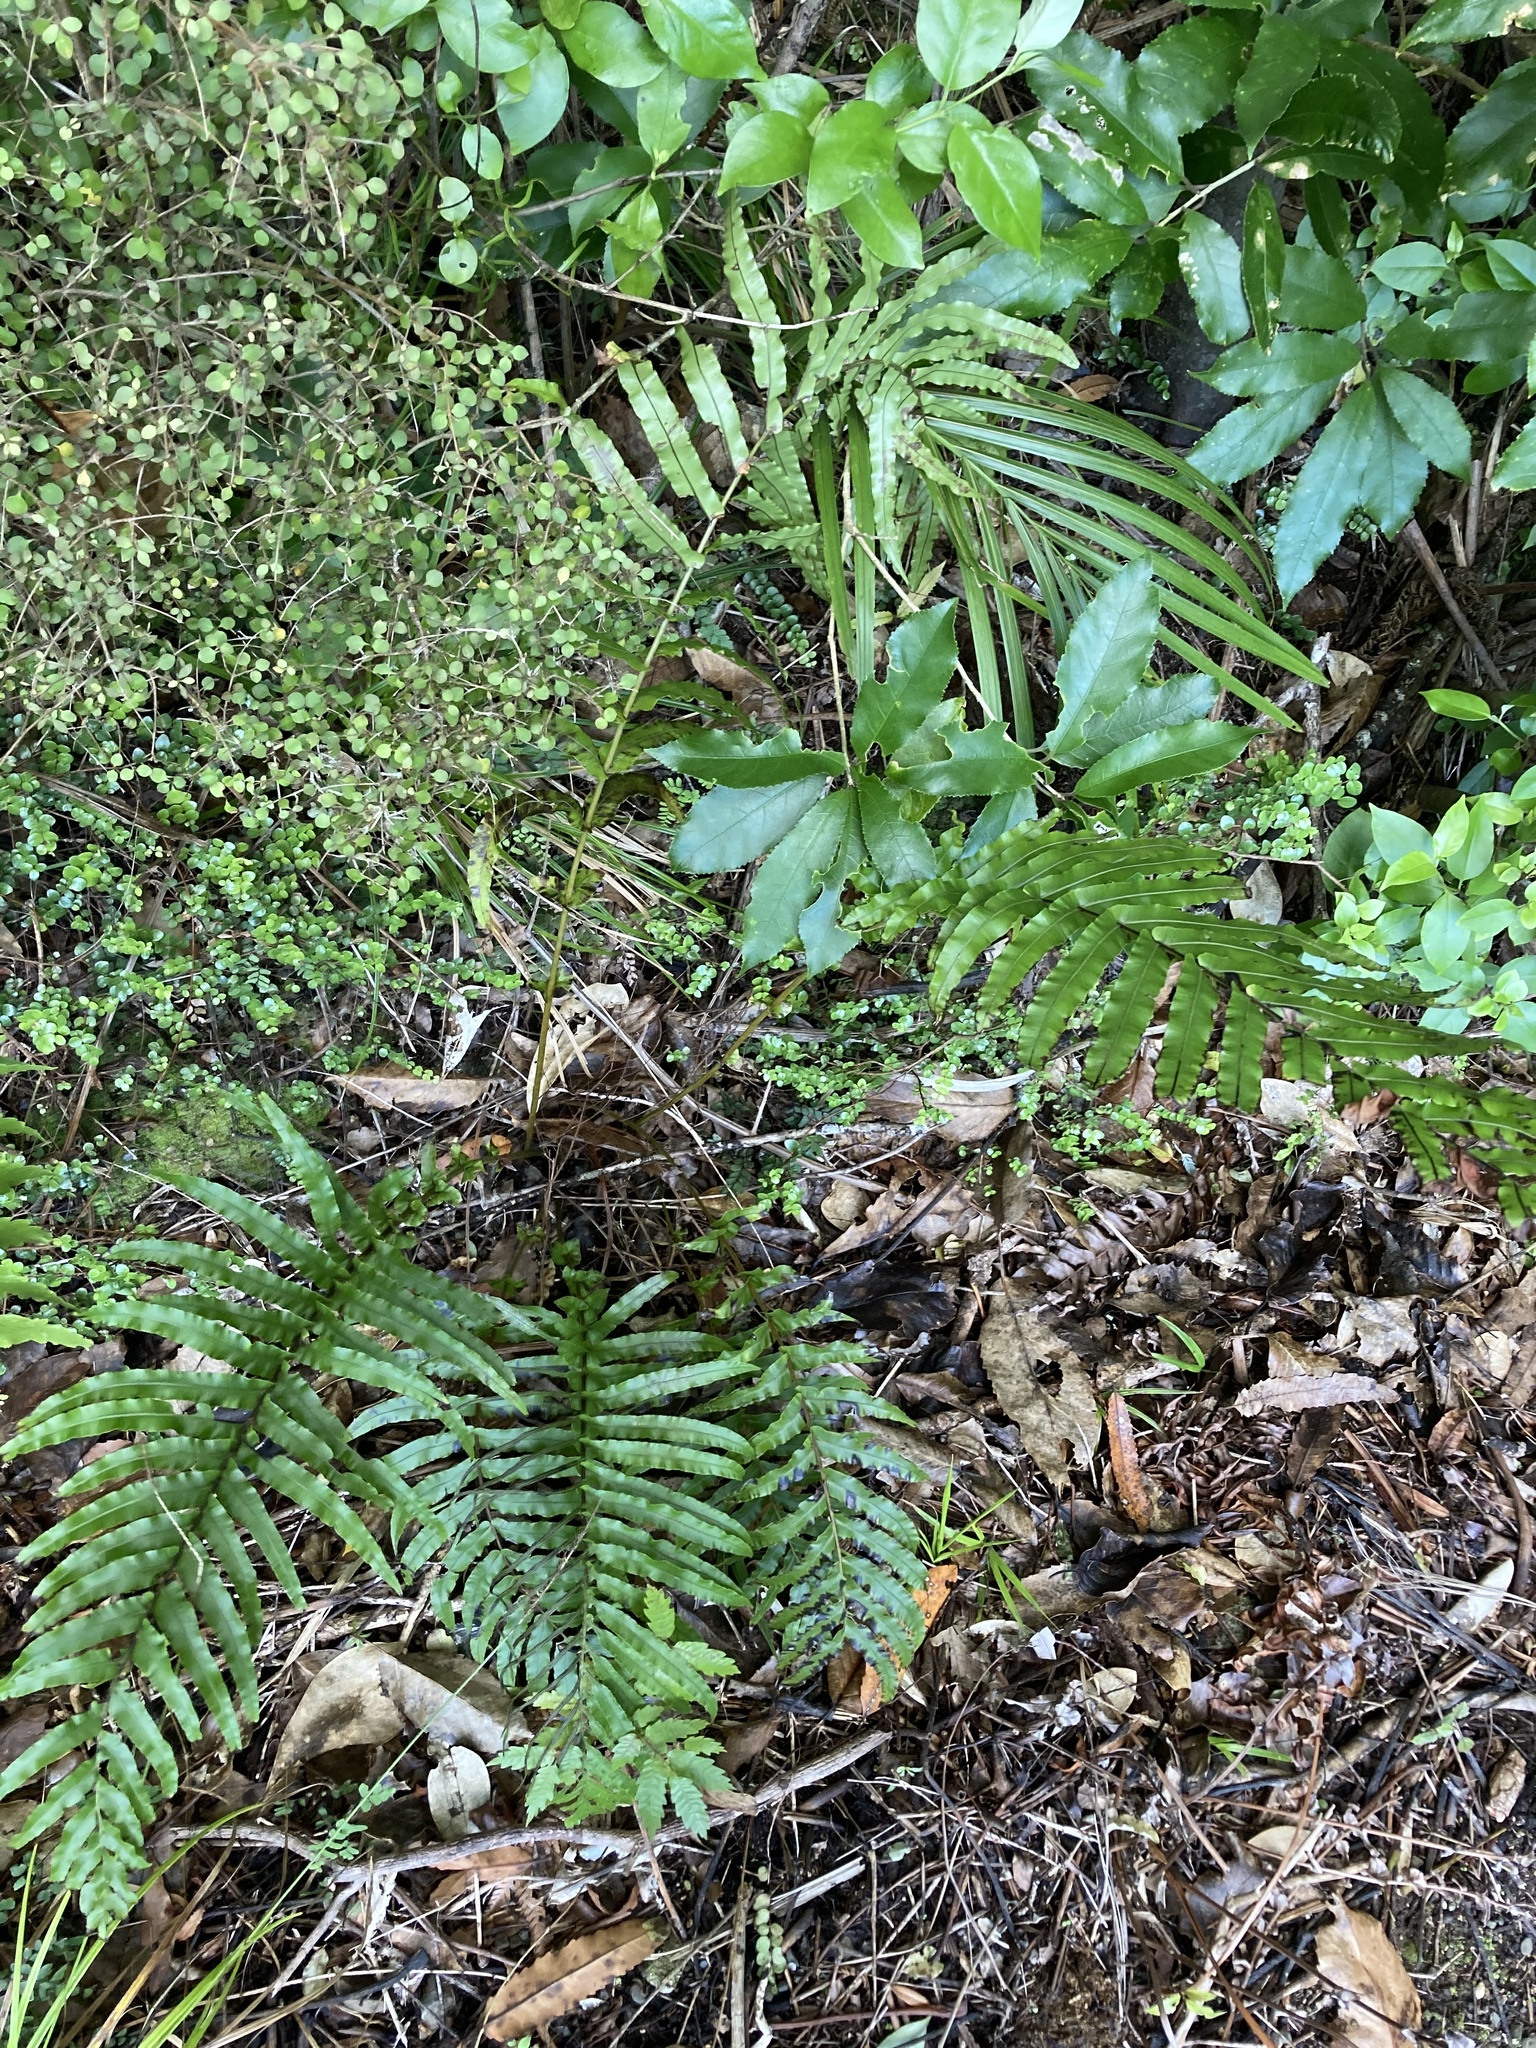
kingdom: Plantae
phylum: Tracheophyta
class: Polypodiopsida
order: Polypodiales
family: Blechnaceae
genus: Parablechnum
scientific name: Parablechnum novae-zelandiae
